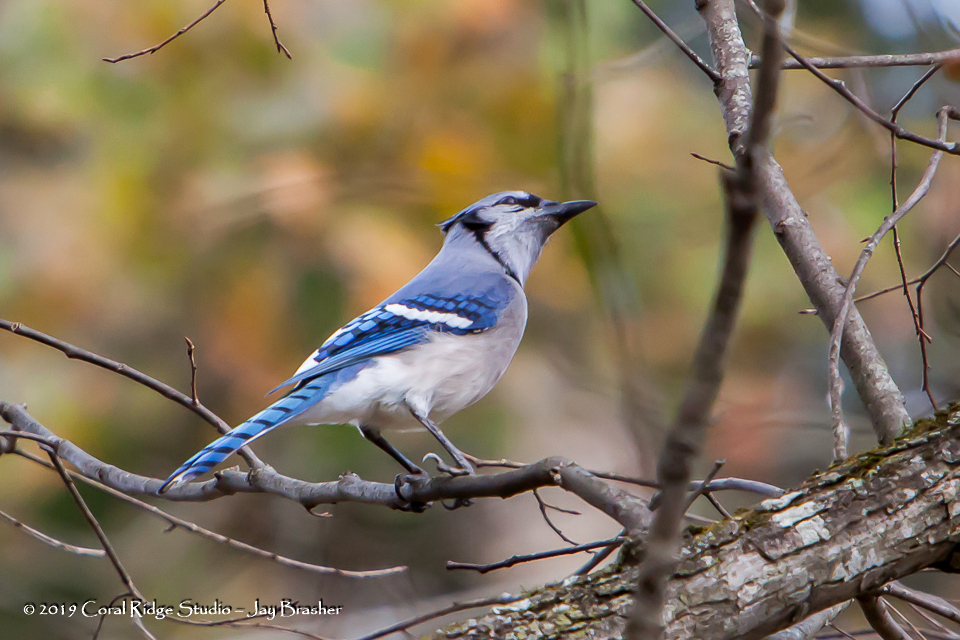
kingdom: Animalia
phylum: Chordata
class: Aves
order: Passeriformes
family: Corvidae
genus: Cyanocitta
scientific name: Cyanocitta cristata
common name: Blue jay
